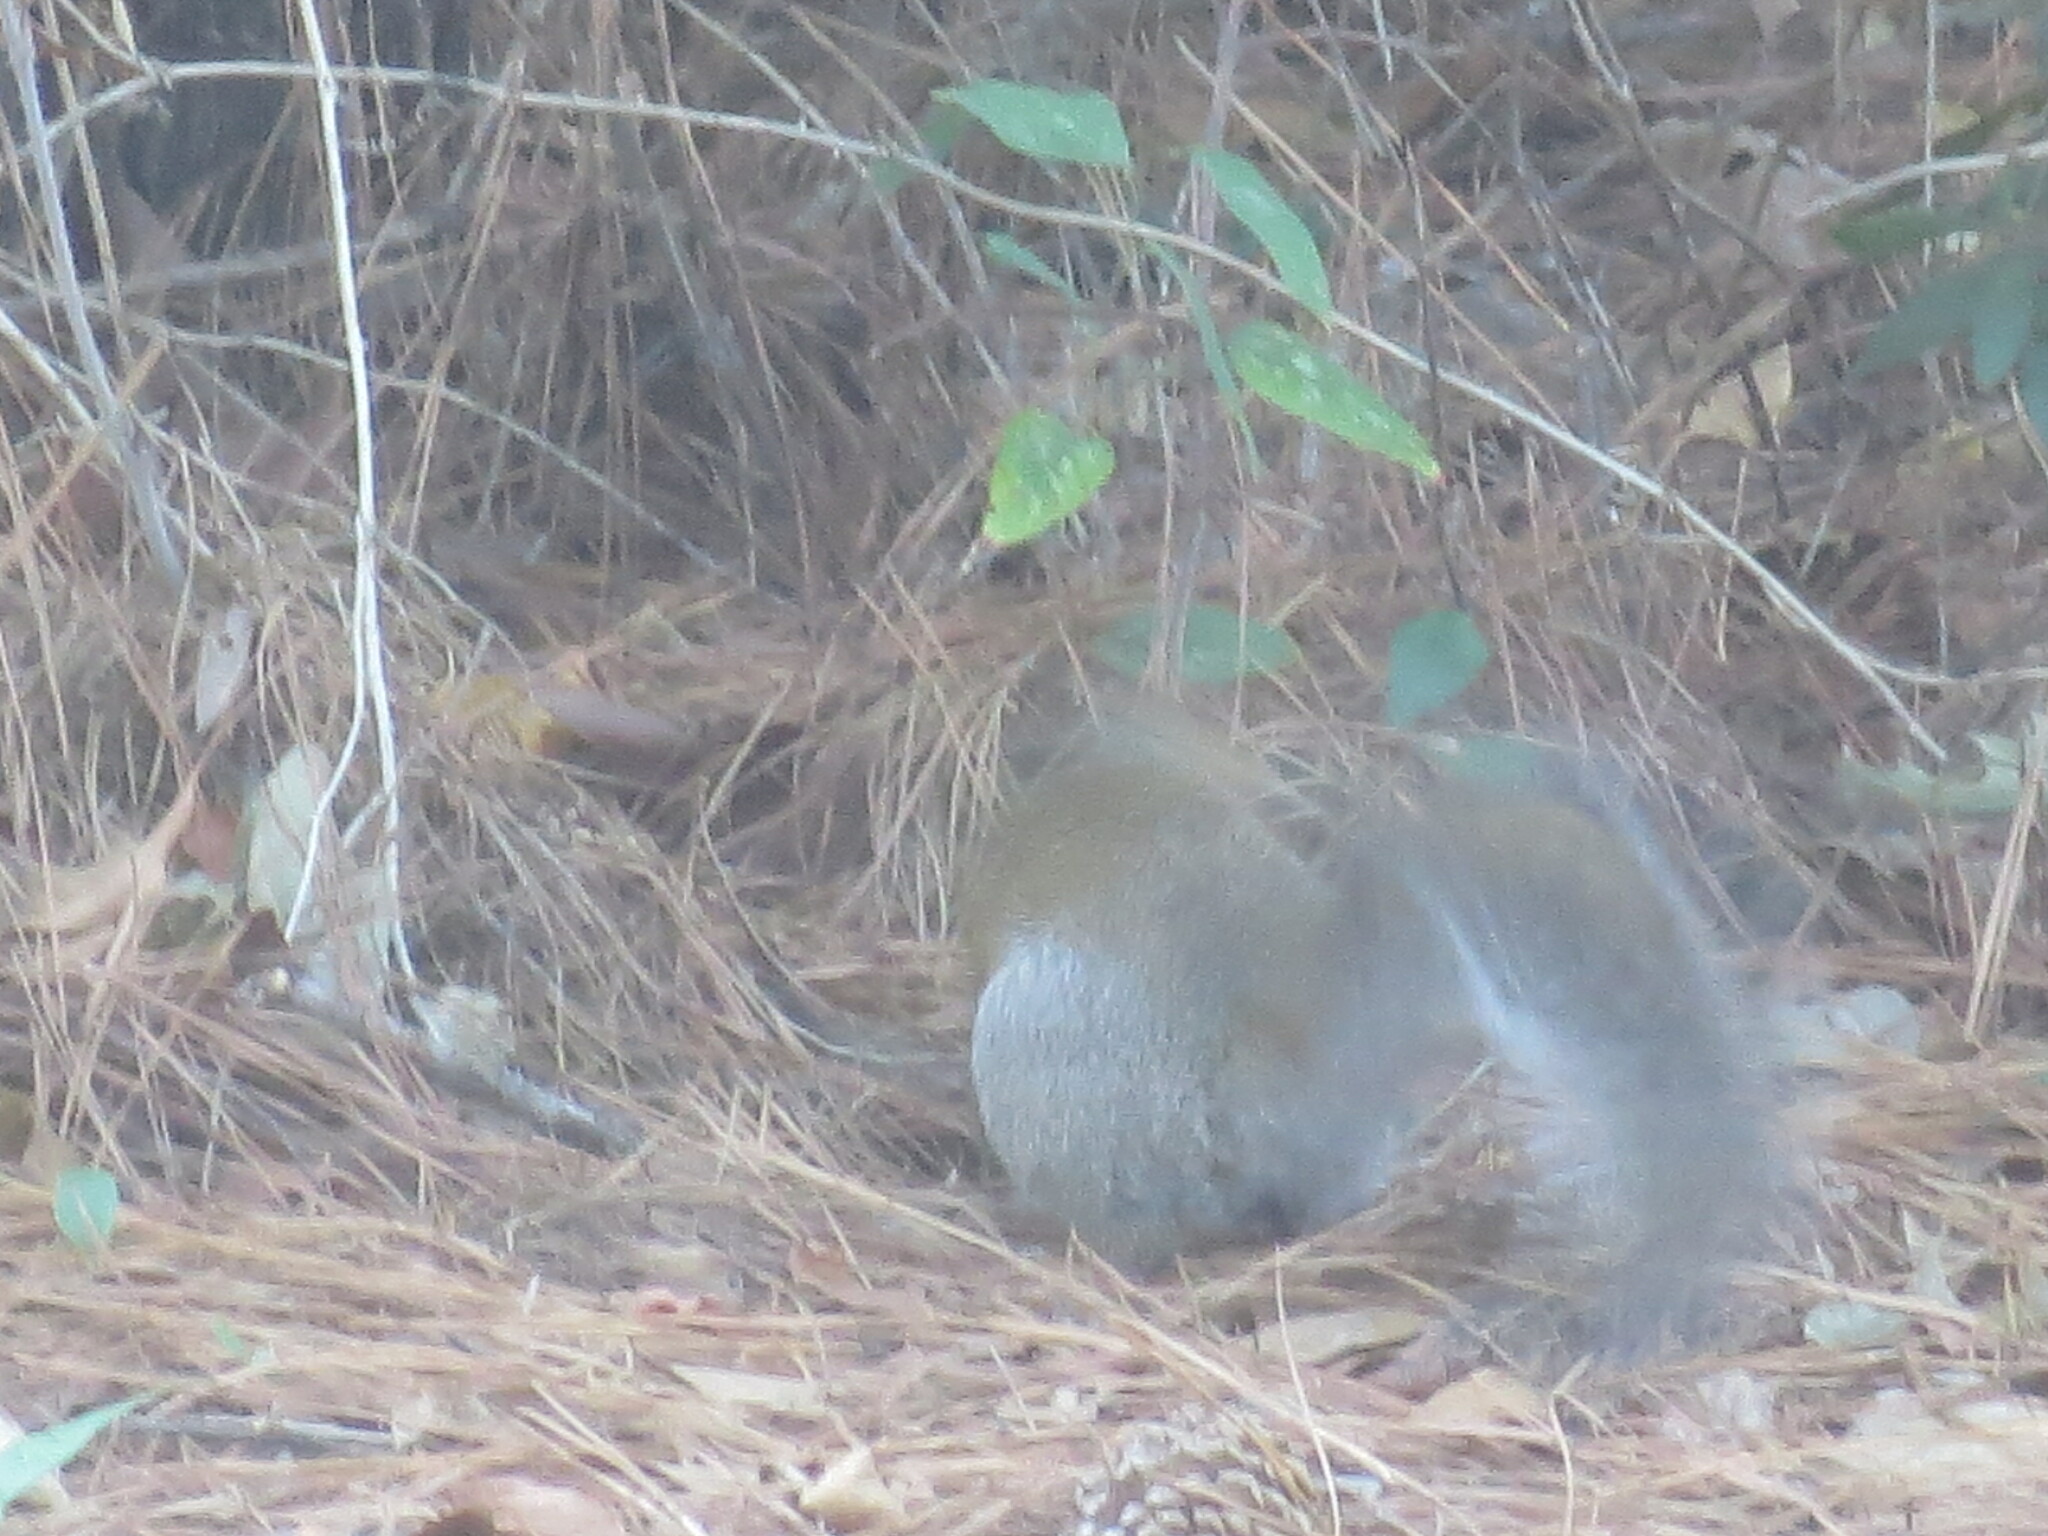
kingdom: Animalia
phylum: Chordata
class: Mammalia
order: Rodentia
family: Sciuridae
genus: Sciurus
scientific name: Sciurus carolinensis
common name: Eastern gray squirrel
